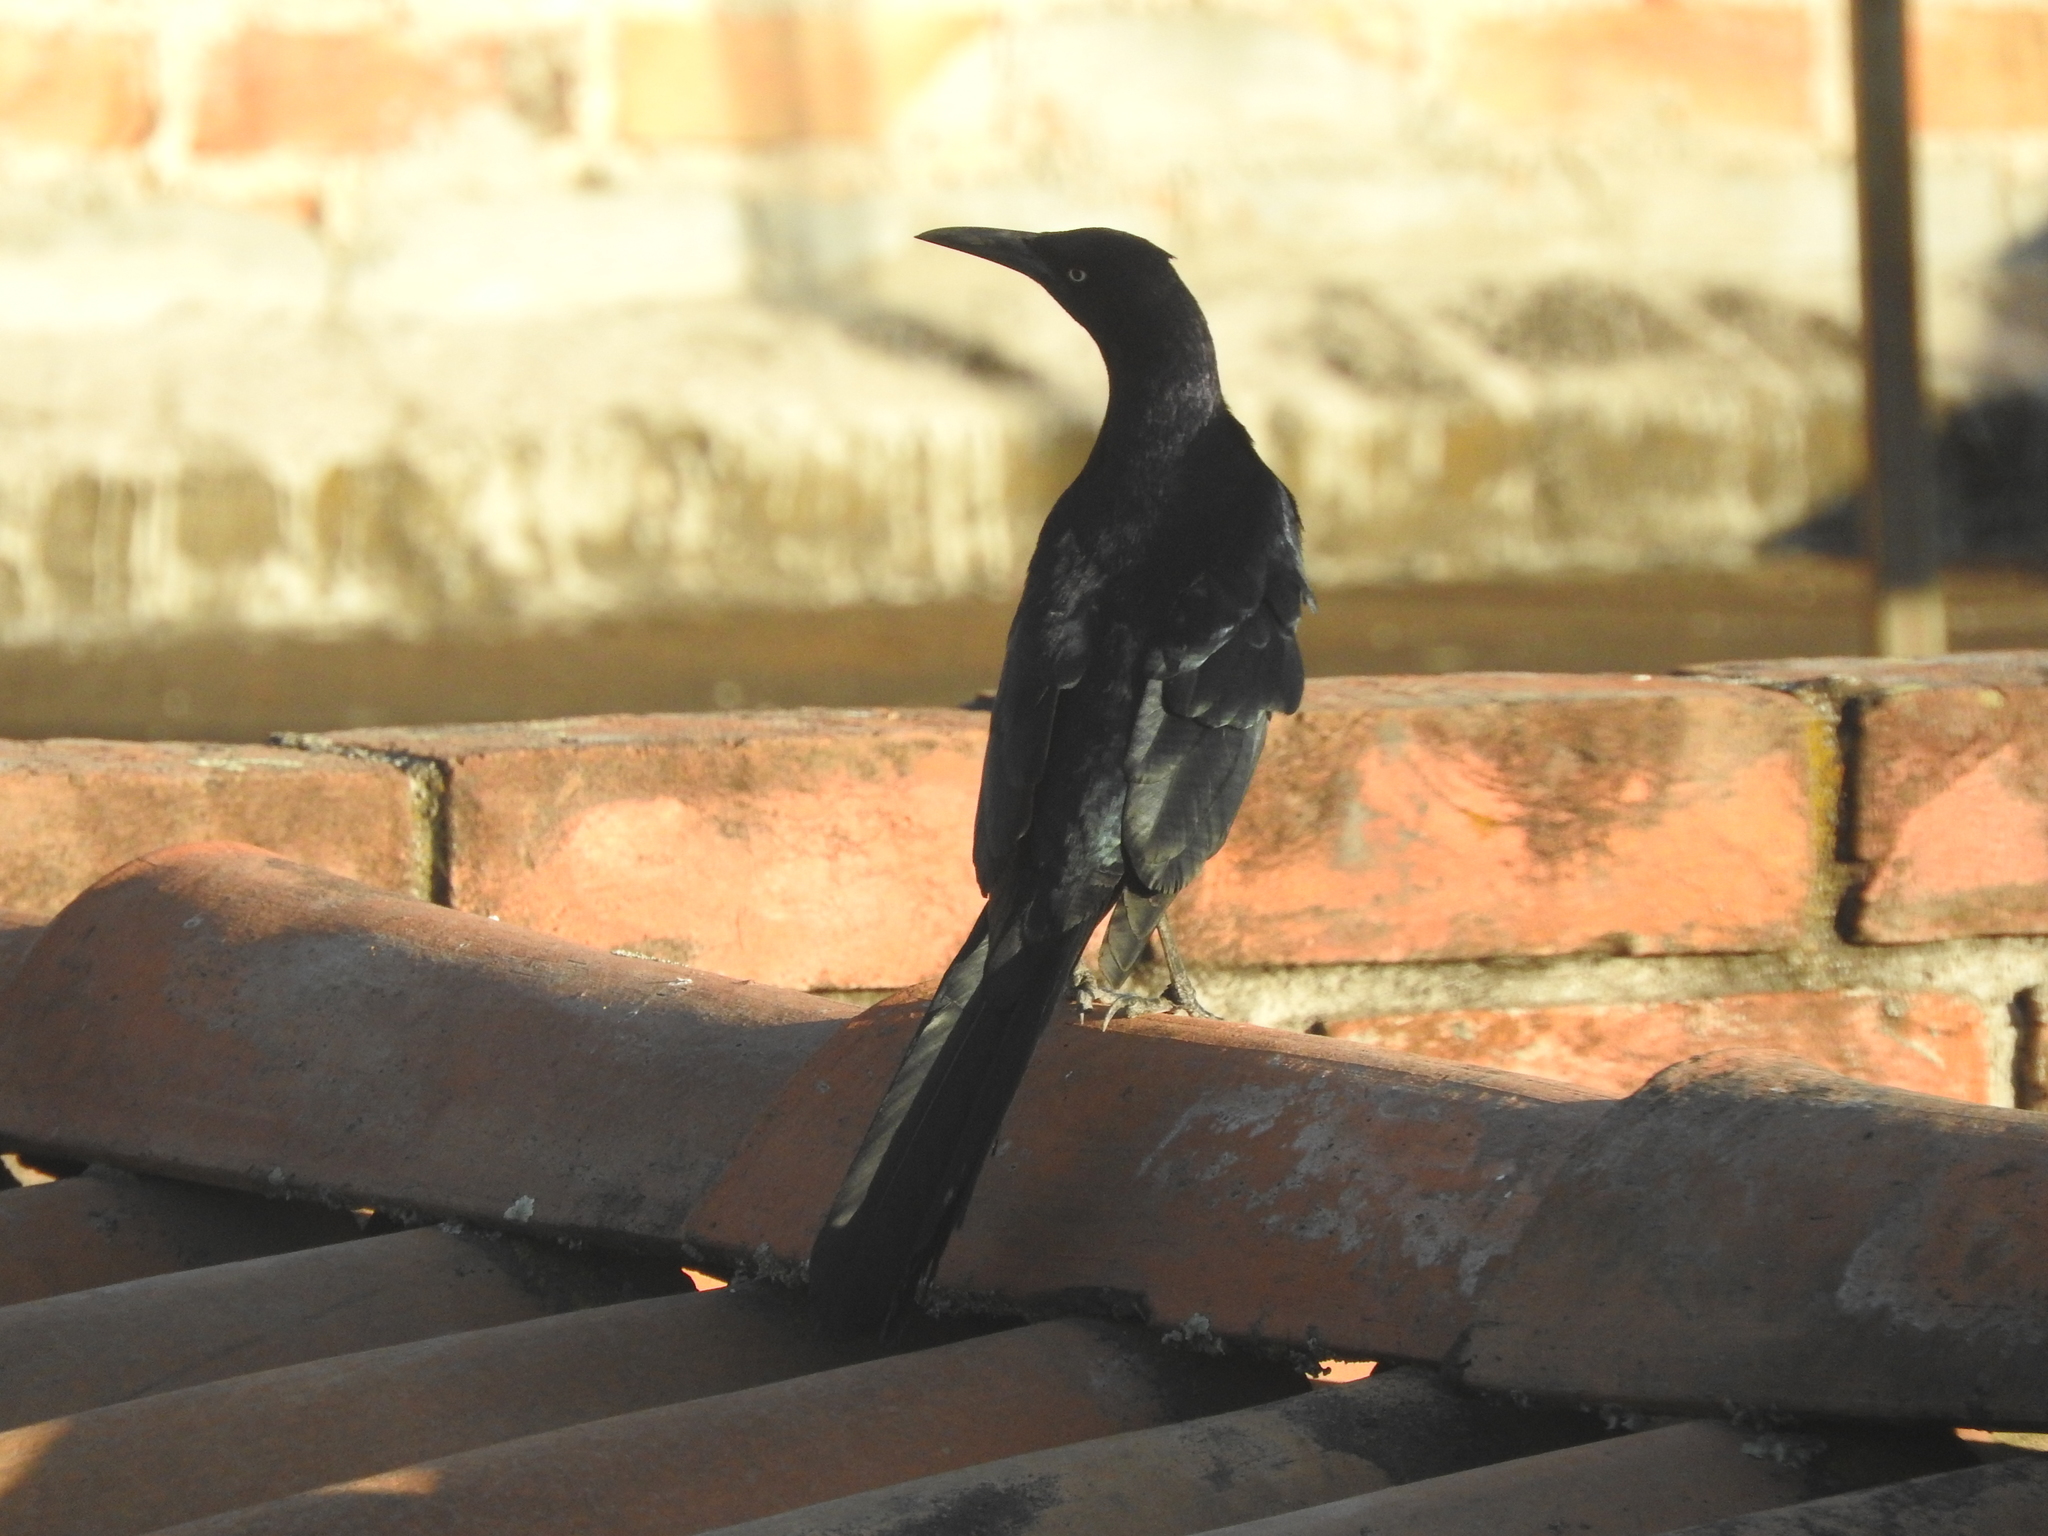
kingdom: Animalia
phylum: Chordata
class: Aves
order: Passeriformes
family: Icteridae
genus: Quiscalus
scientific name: Quiscalus mexicanus
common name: Great-tailed grackle
